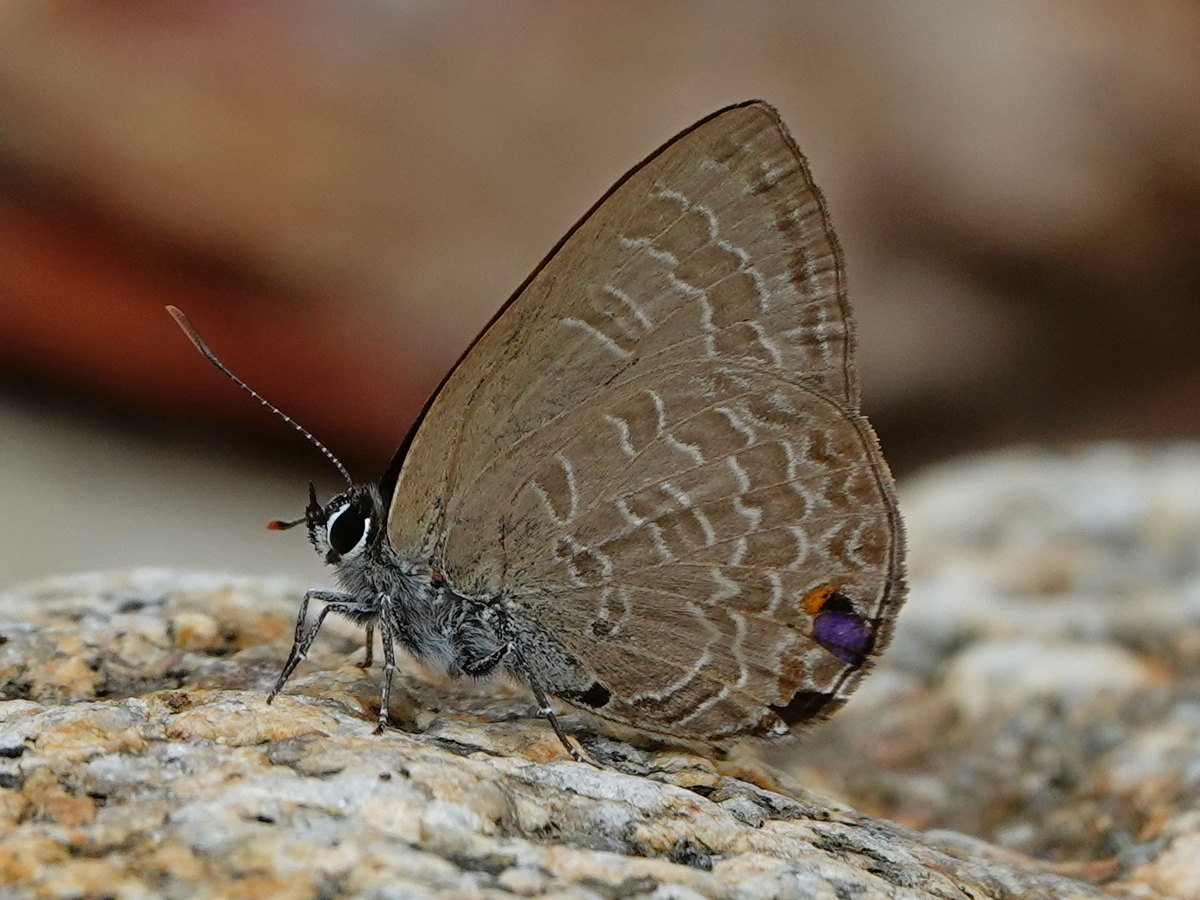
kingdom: Animalia
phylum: Arthropoda
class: Insecta
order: Lepidoptera
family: Lycaenidae
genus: Anthene
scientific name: Anthene emolus
